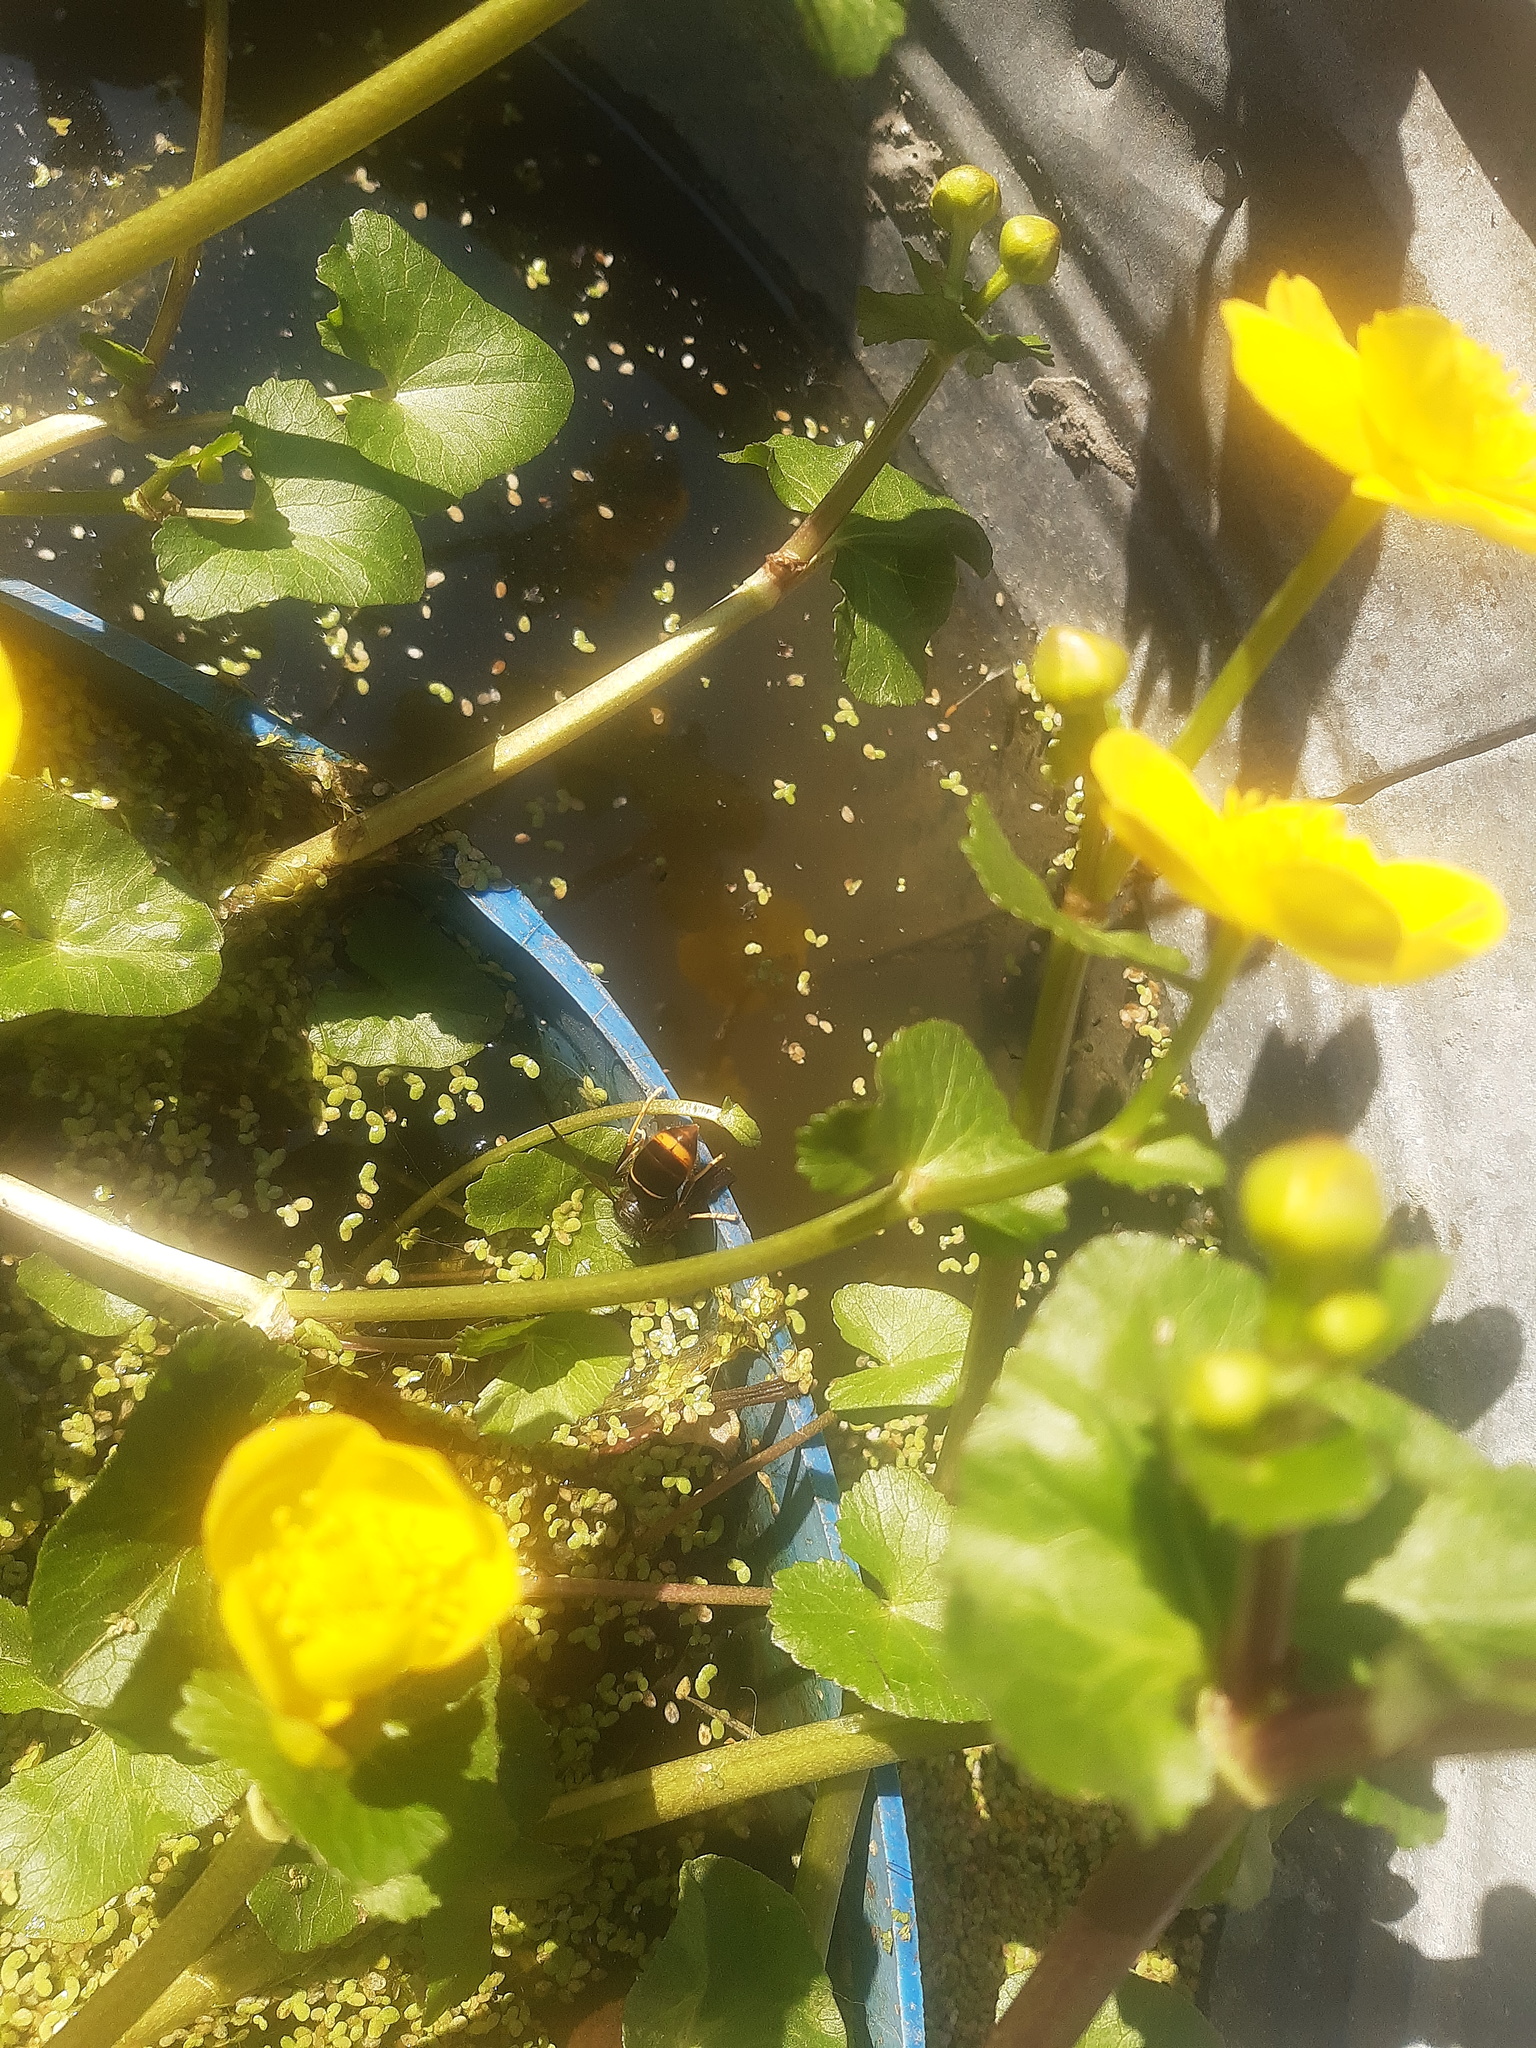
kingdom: Animalia
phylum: Arthropoda
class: Insecta
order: Hymenoptera
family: Vespidae
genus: Vespa
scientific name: Vespa velutina
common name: Asian hornet
